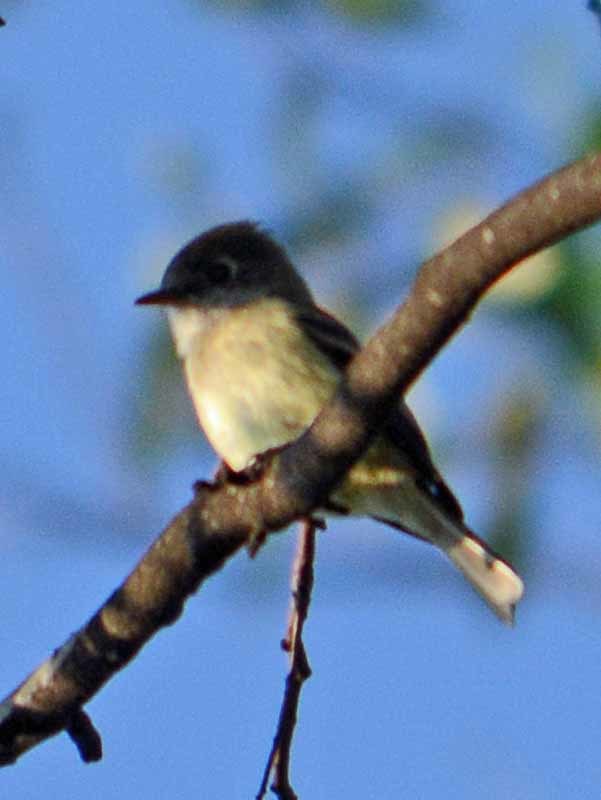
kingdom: Animalia
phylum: Chordata
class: Aves
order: Passeriformes
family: Tyrannidae
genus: Empidonax
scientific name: Empidonax
